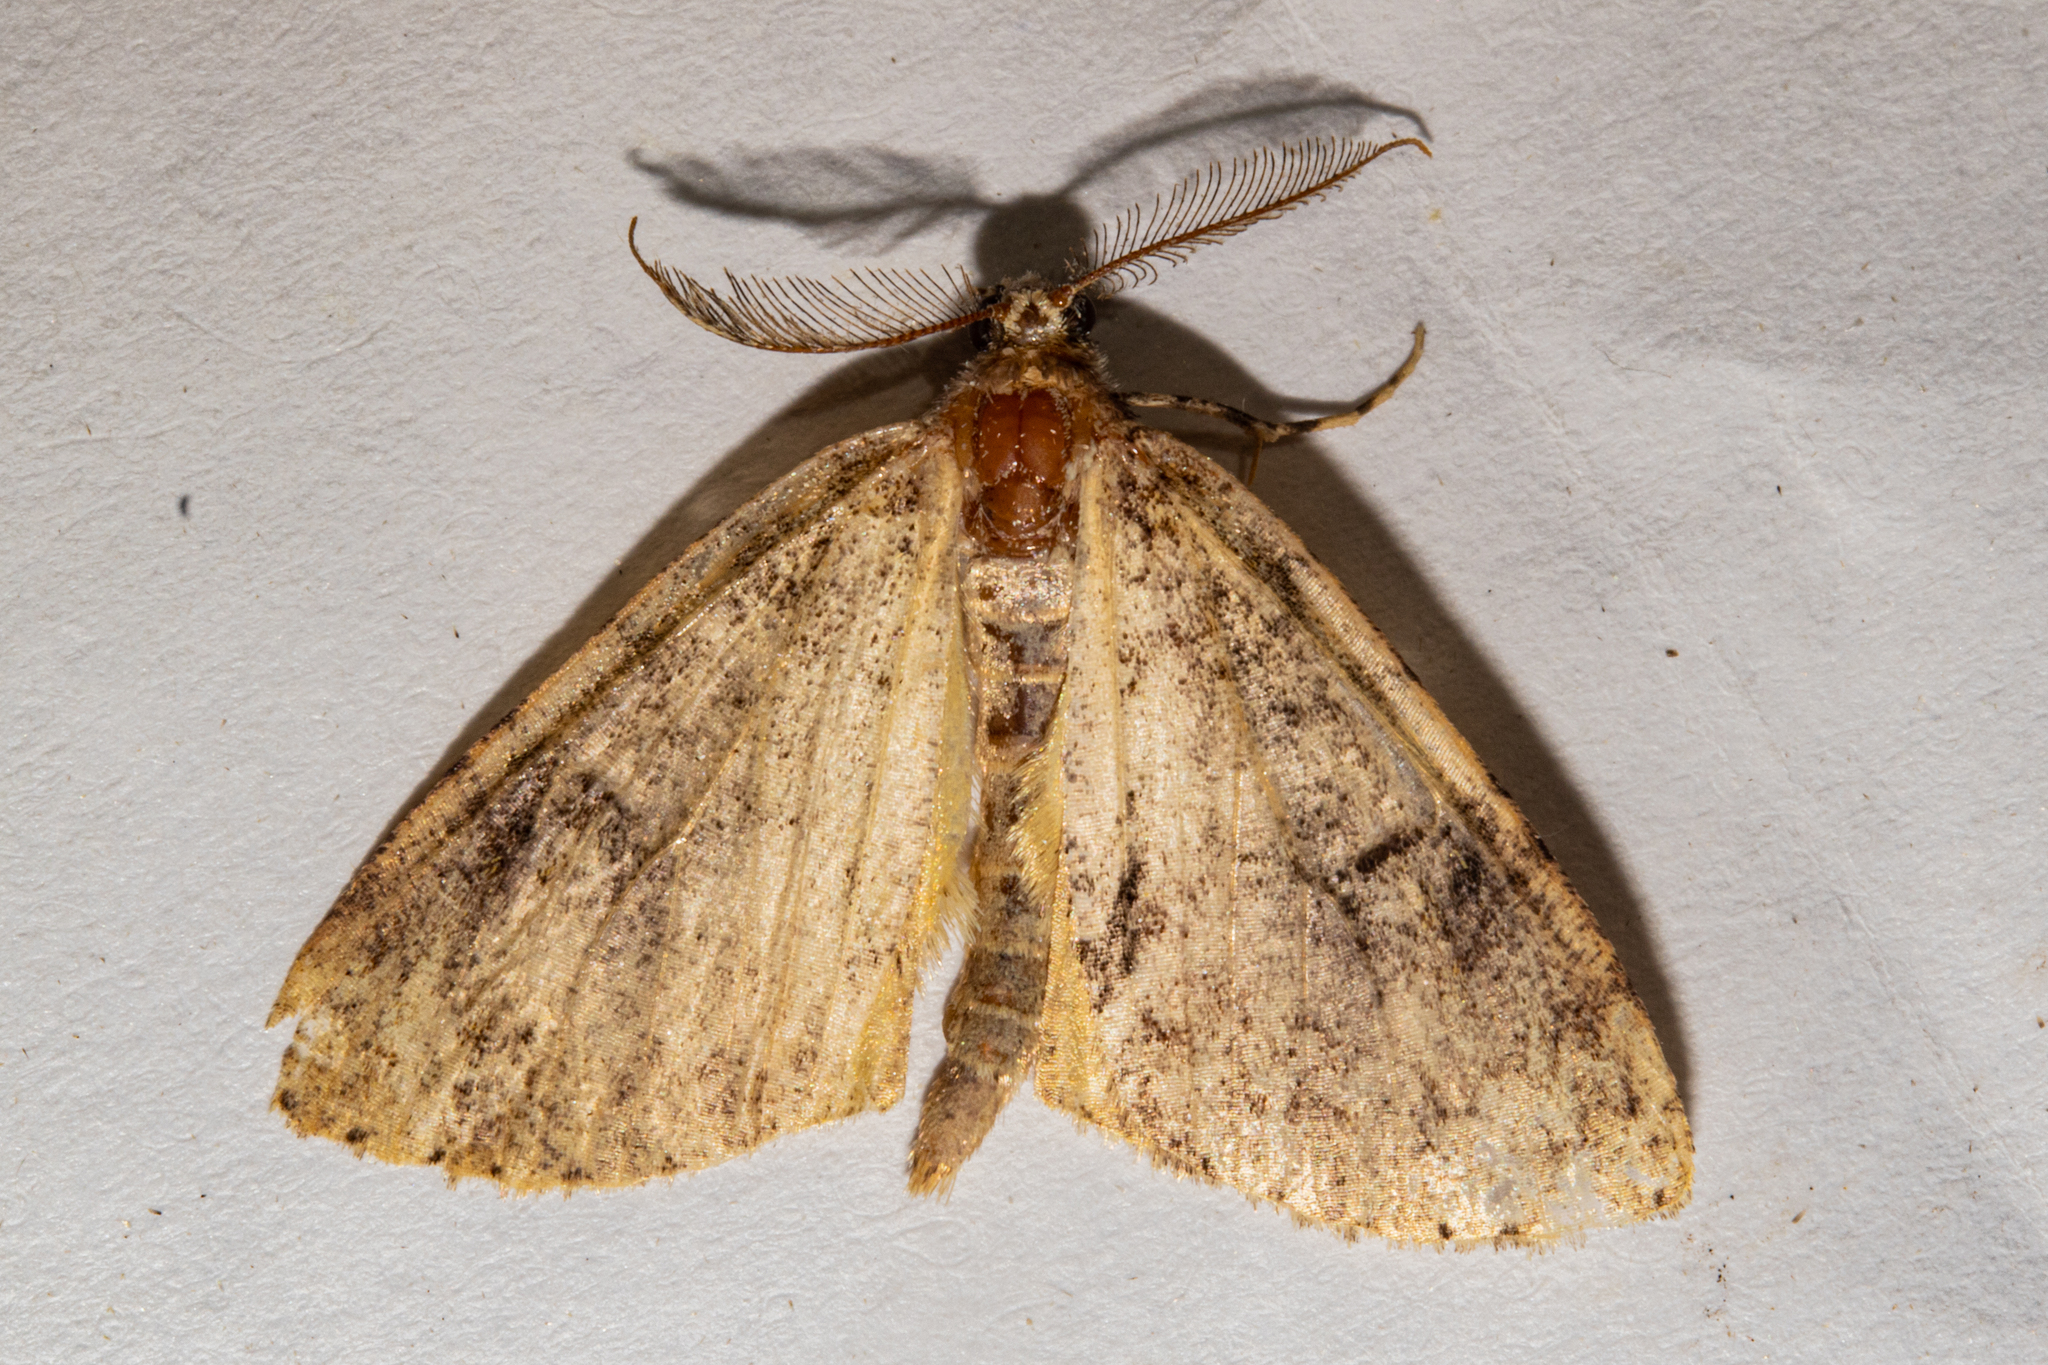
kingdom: Animalia
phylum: Arthropoda
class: Insecta
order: Lepidoptera
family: Geometridae
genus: Pseudocoremia
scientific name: Pseudocoremia suavis
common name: Common forest looper
